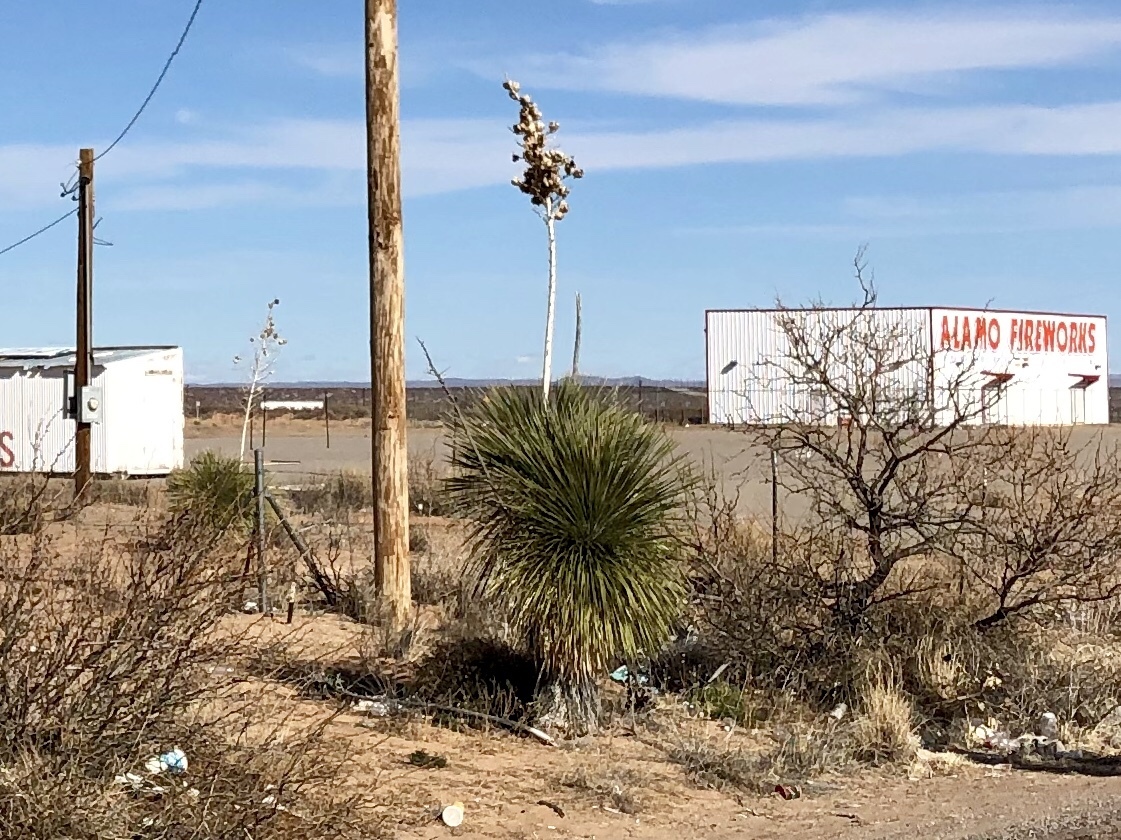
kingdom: Plantae
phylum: Tracheophyta
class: Liliopsida
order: Asparagales
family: Asparagaceae
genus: Yucca
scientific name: Yucca elata
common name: Palmella
